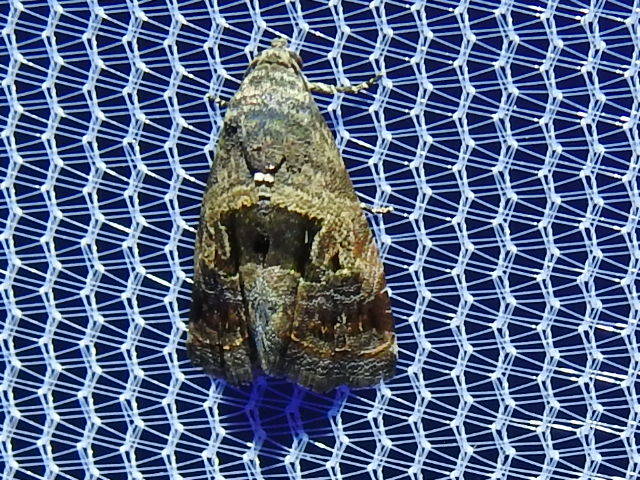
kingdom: Animalia
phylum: Arthropoda
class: Insecta
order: Lepidoptera
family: Noctuidae
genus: Tripudia
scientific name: Tripudia quadrifera
